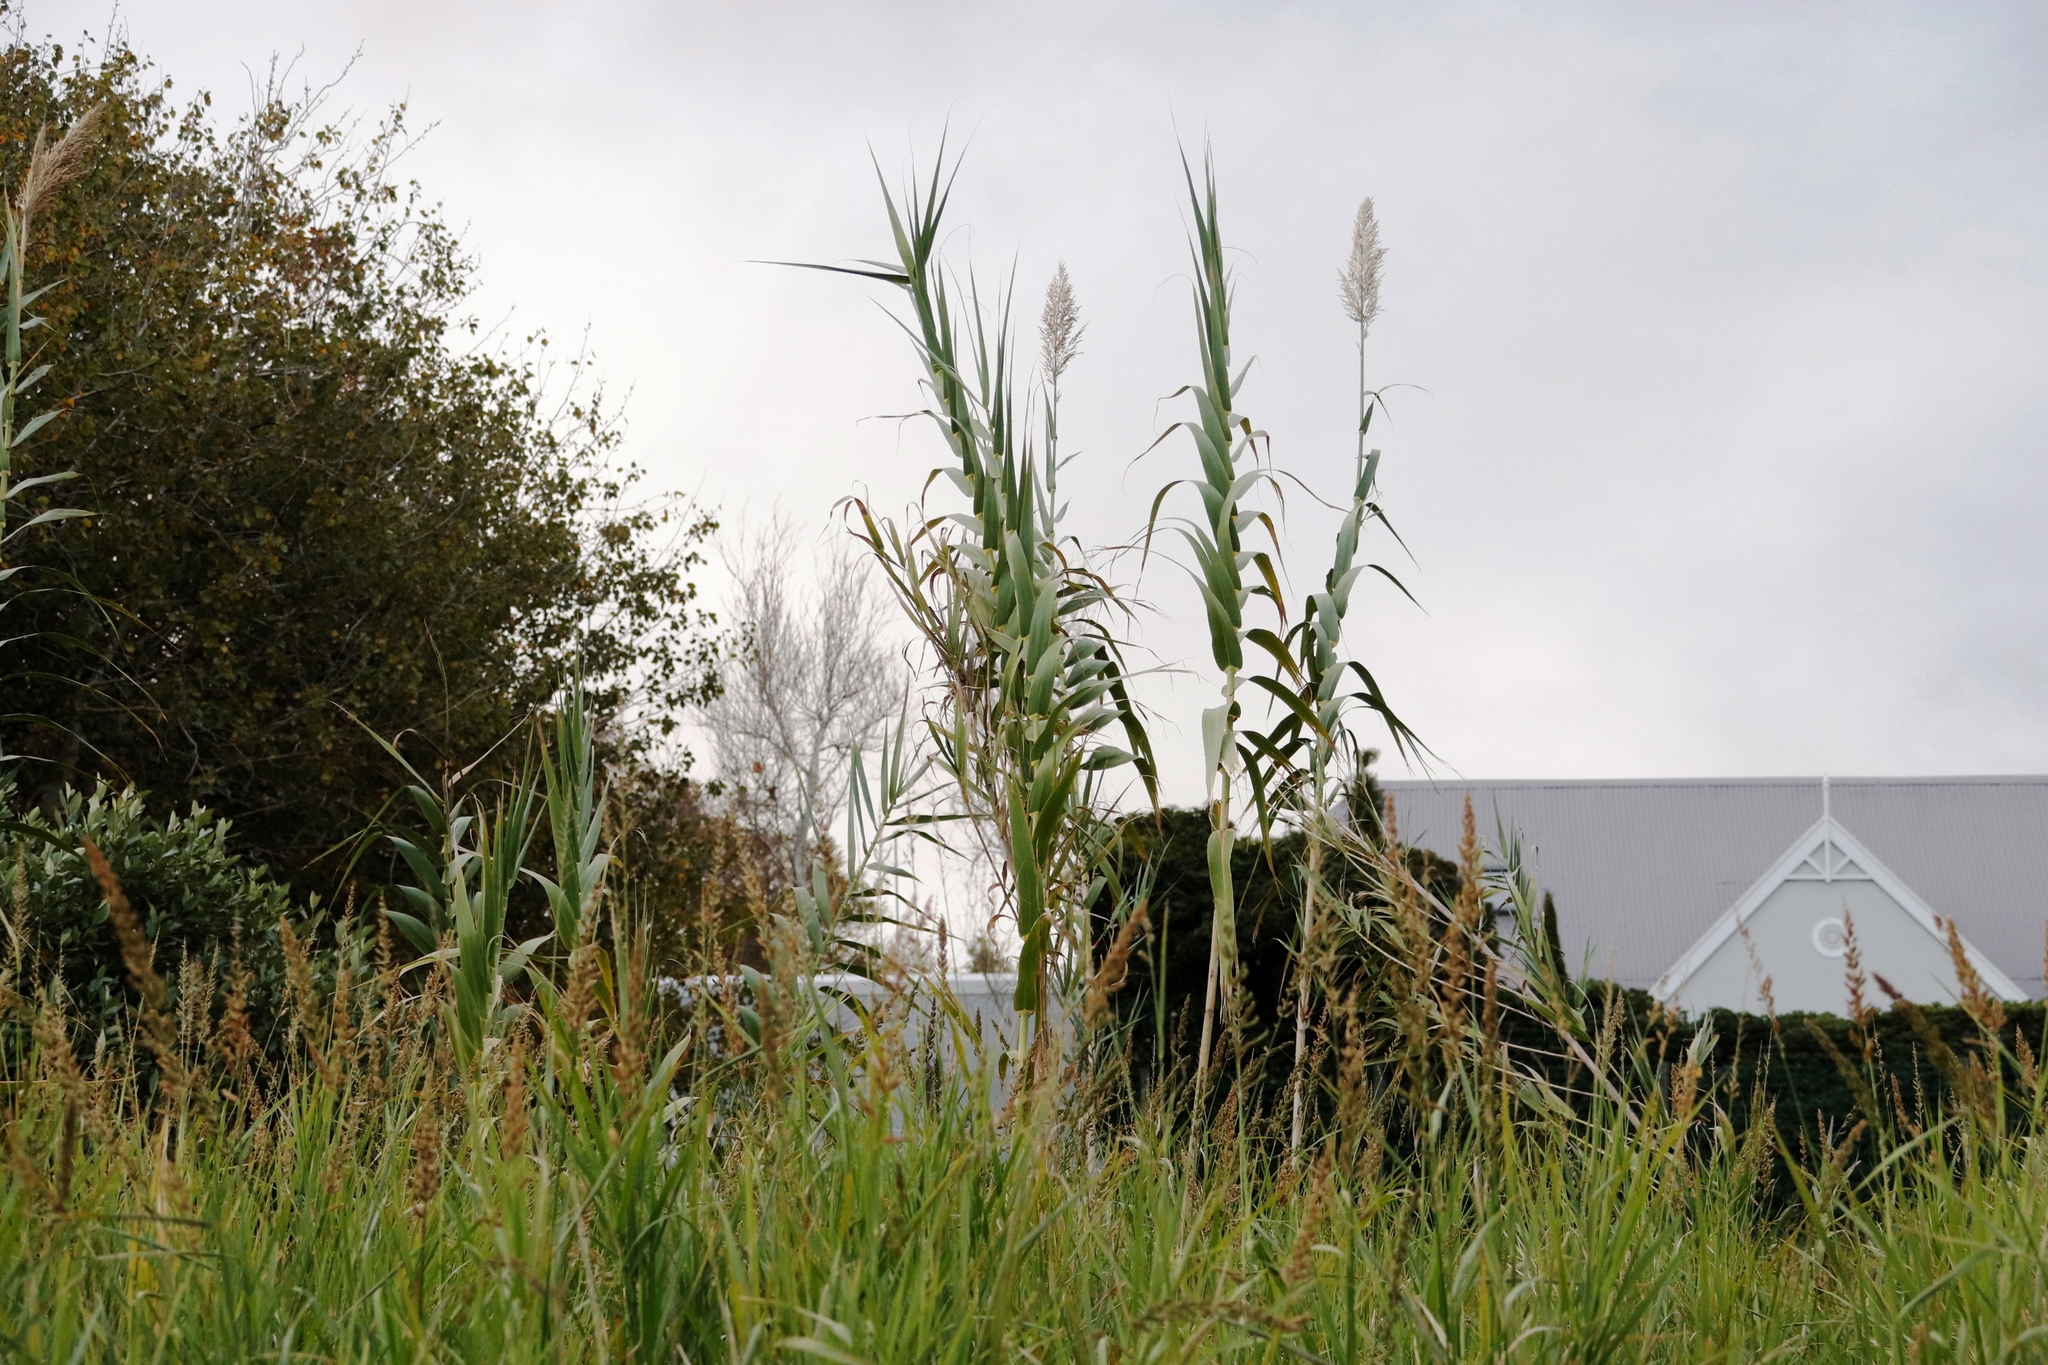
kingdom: Plantae
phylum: Tracheophyta
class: Liliopsida
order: Poales
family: Poaceae
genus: Arundo
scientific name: Arundo donax
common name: Giant reed
